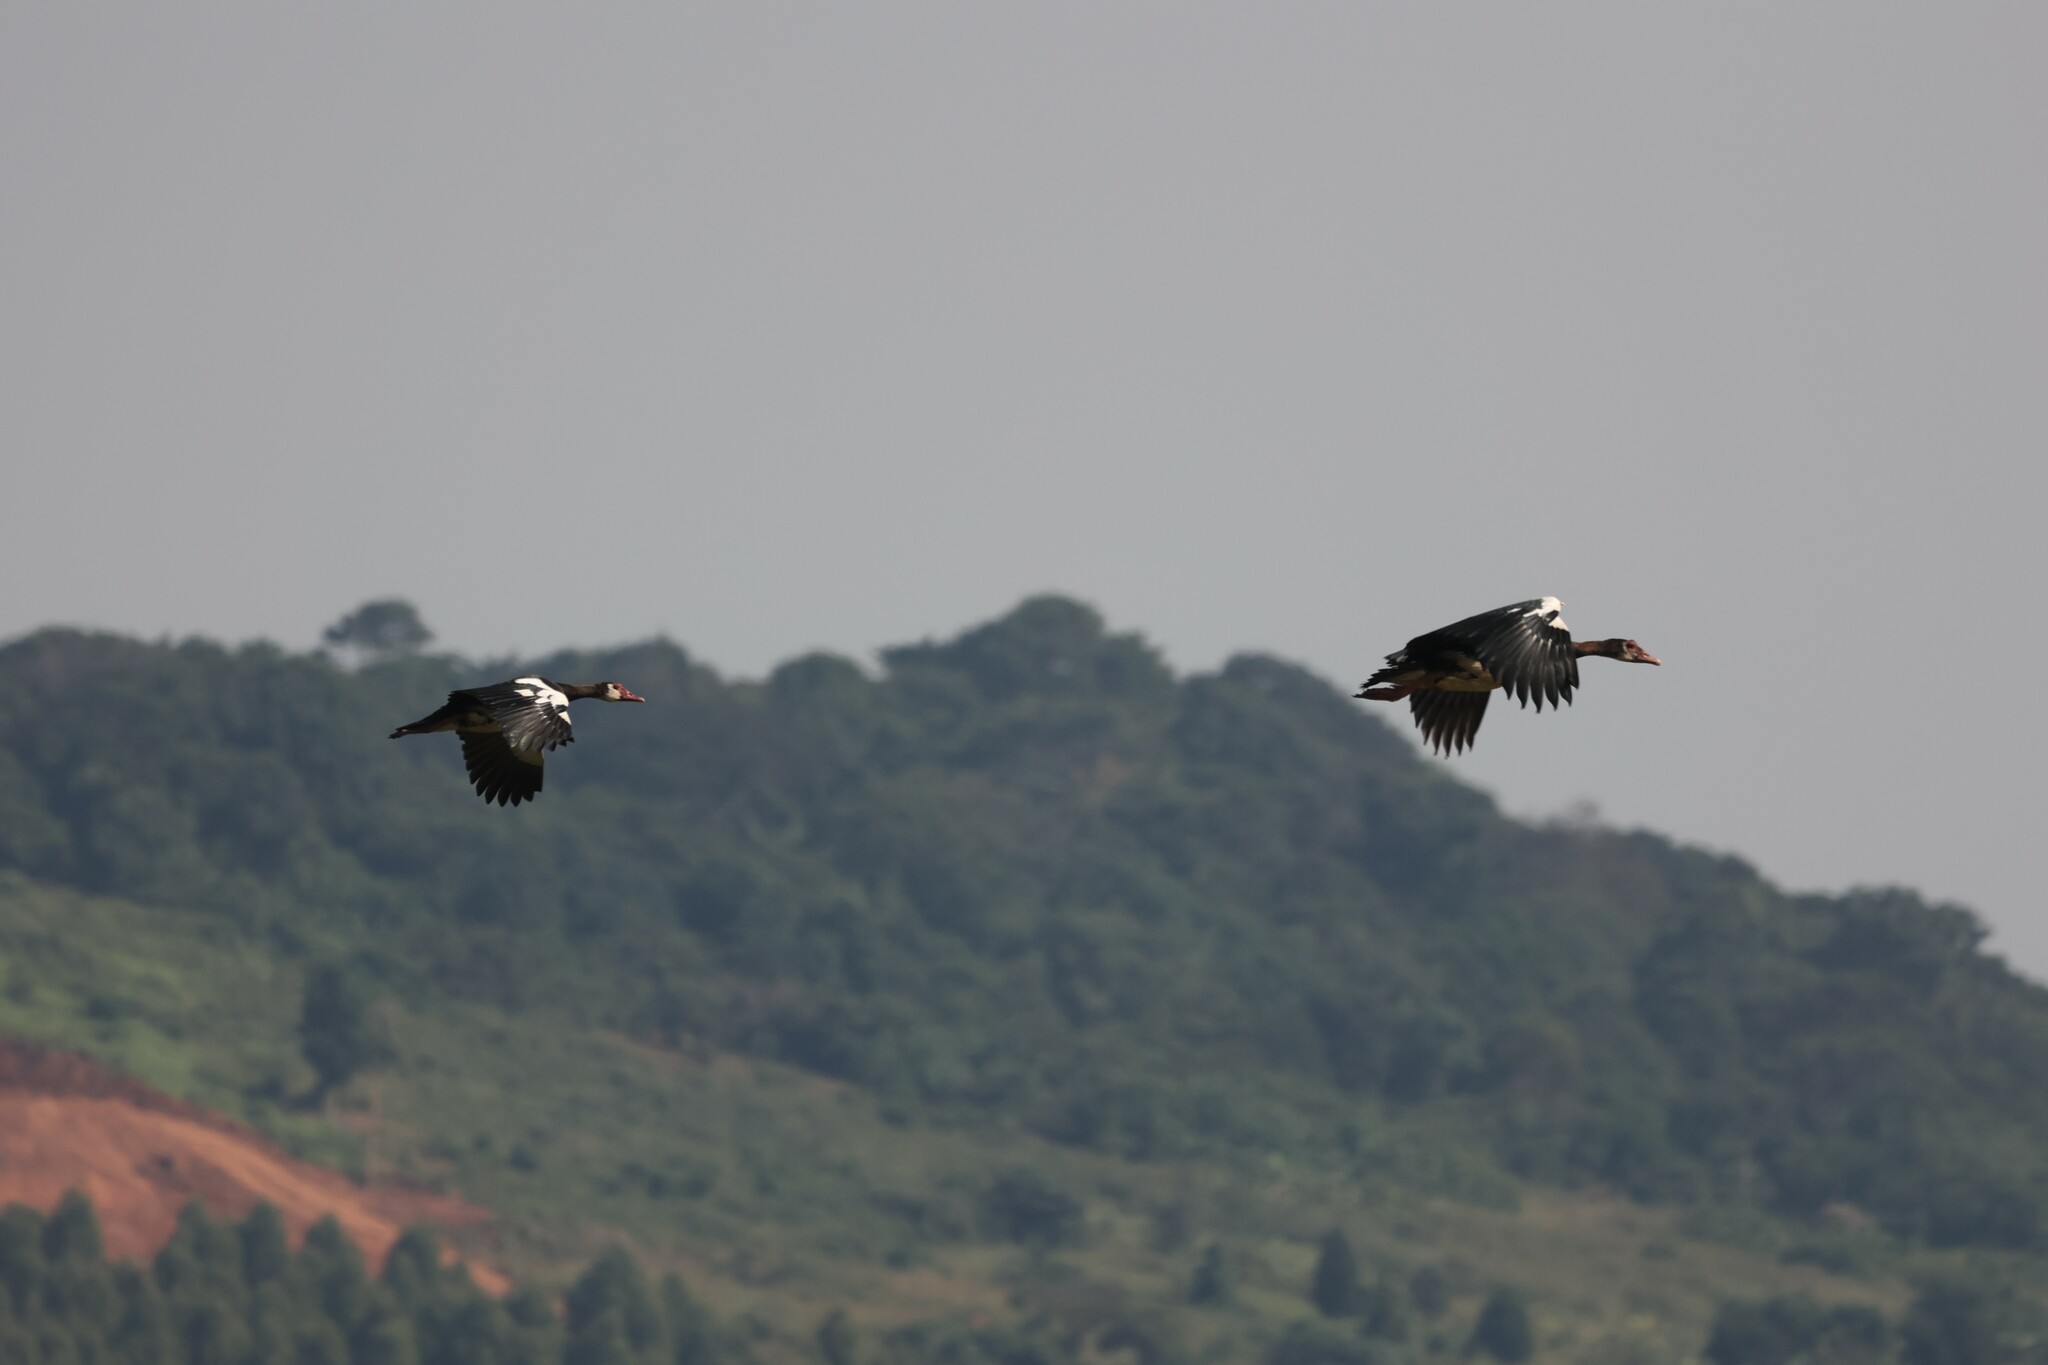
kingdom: Animalia
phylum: Chordata
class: Aves
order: Anseriformes
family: Anatidae
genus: Plectropterus
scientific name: Plectropterus gambensis
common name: Spur-winged goose
